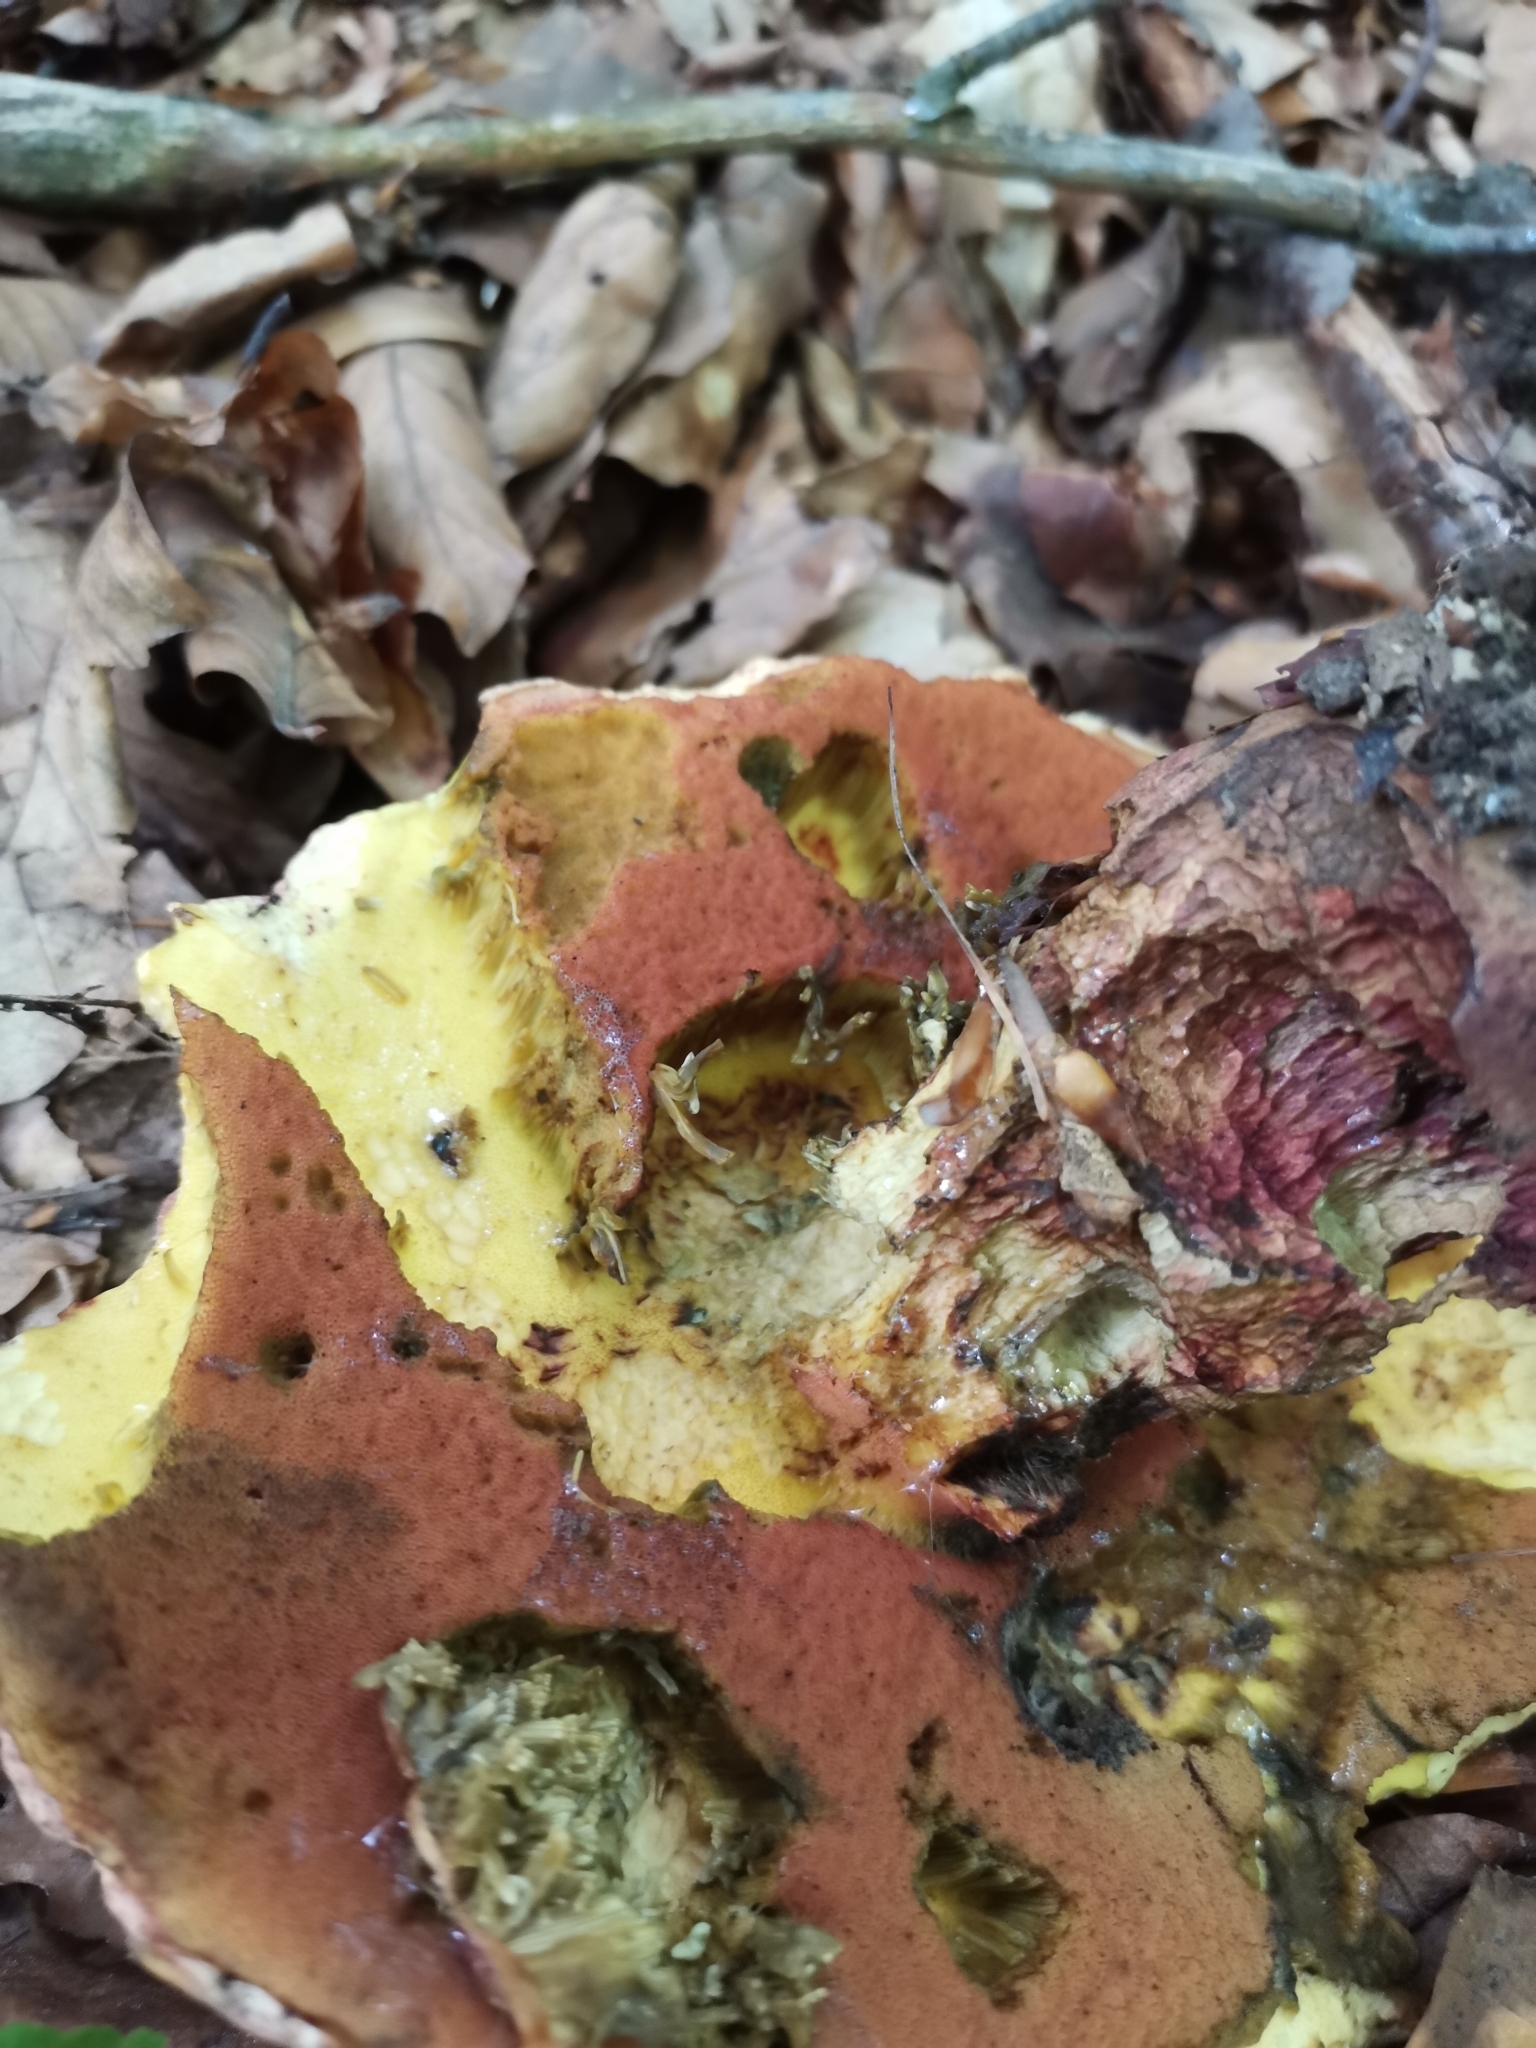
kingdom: Fungi
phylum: Basidiomycota
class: Agaricomycetes
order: Boletales
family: Boletaceae
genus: Suillellus
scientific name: Suillellus luridus
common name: Lurid bolete
